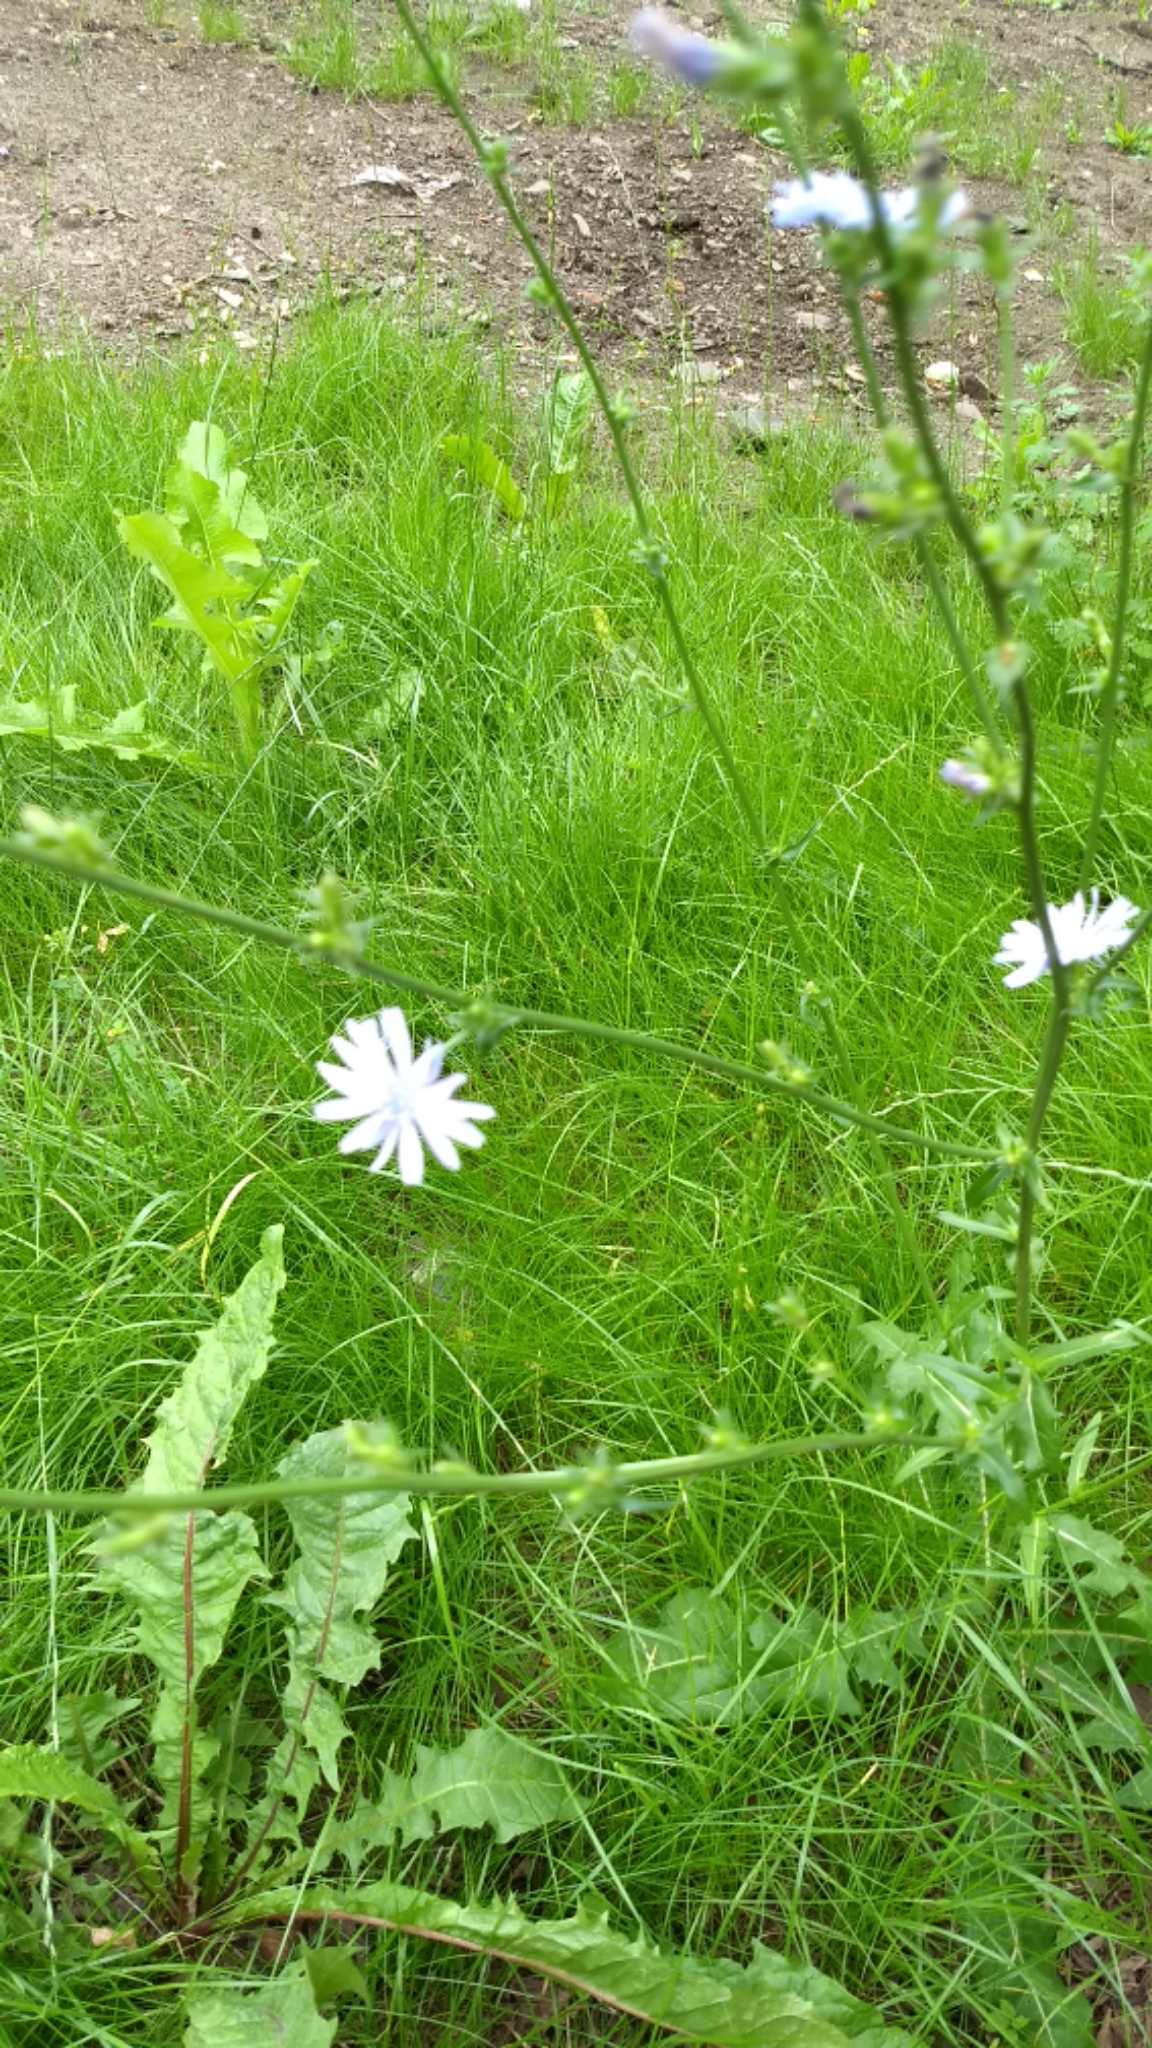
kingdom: Plantae
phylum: Tracheophyta
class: Magnoliopsida
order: Asterales
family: Asteraceae
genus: Cichorium
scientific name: Cichorium intybus
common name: Chicory
